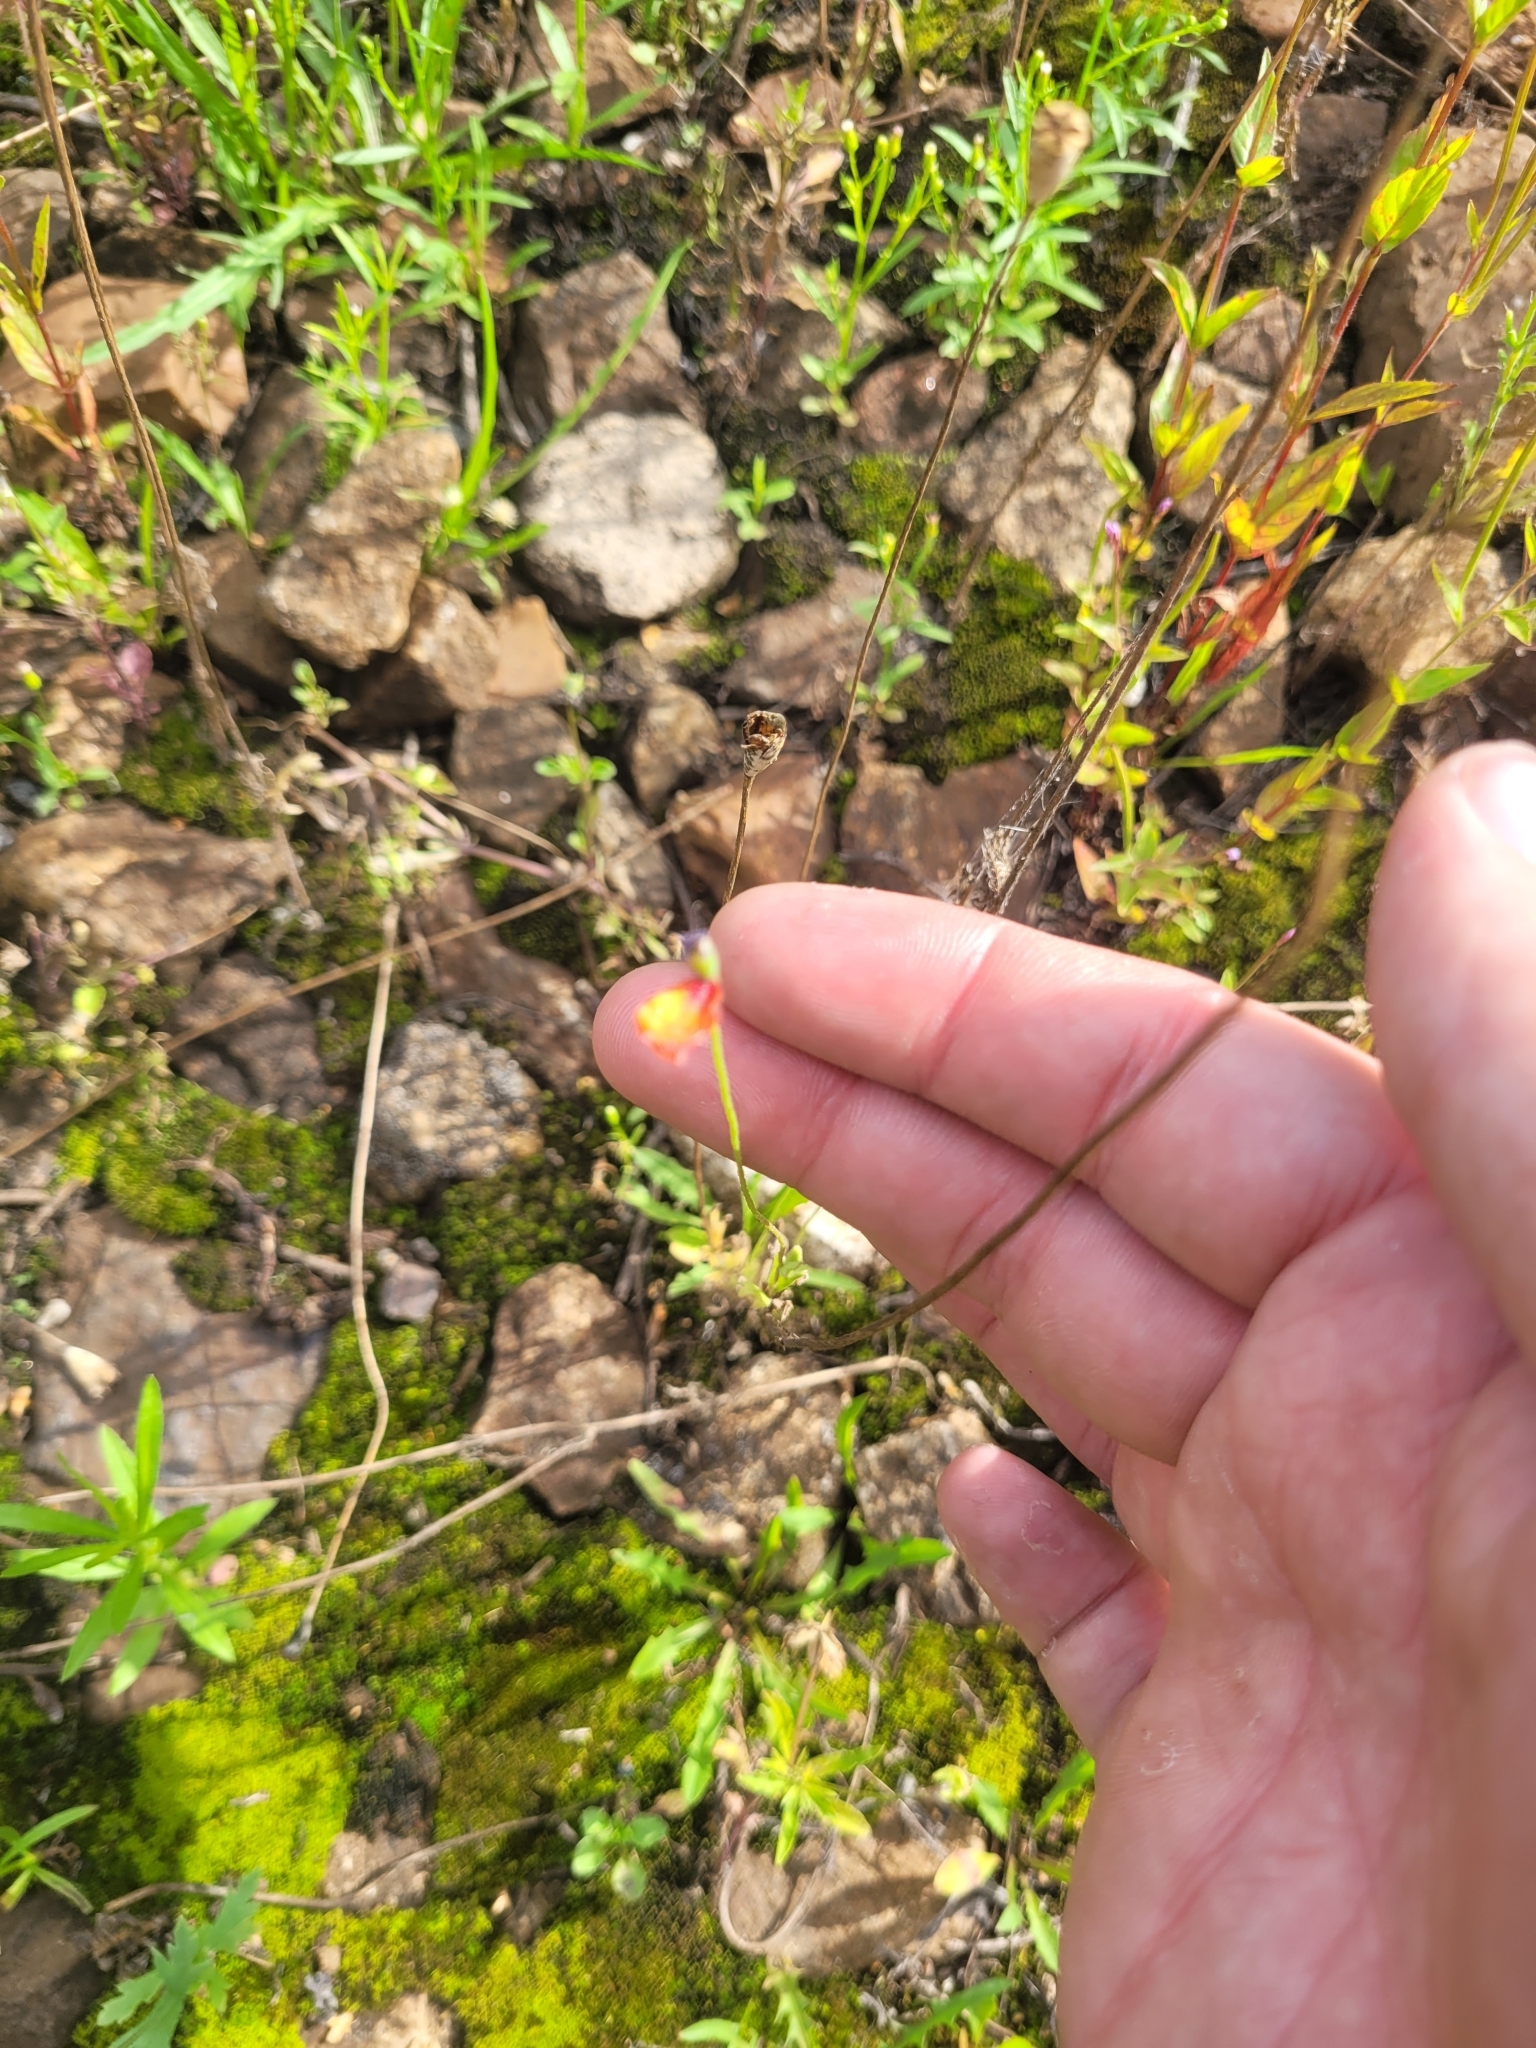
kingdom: Plantae
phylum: Tracheophyta
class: Magnoliopsida
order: Ranunculales
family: Papaveraceae
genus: Papaver
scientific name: Papaver dubium
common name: Long-headed poppy
